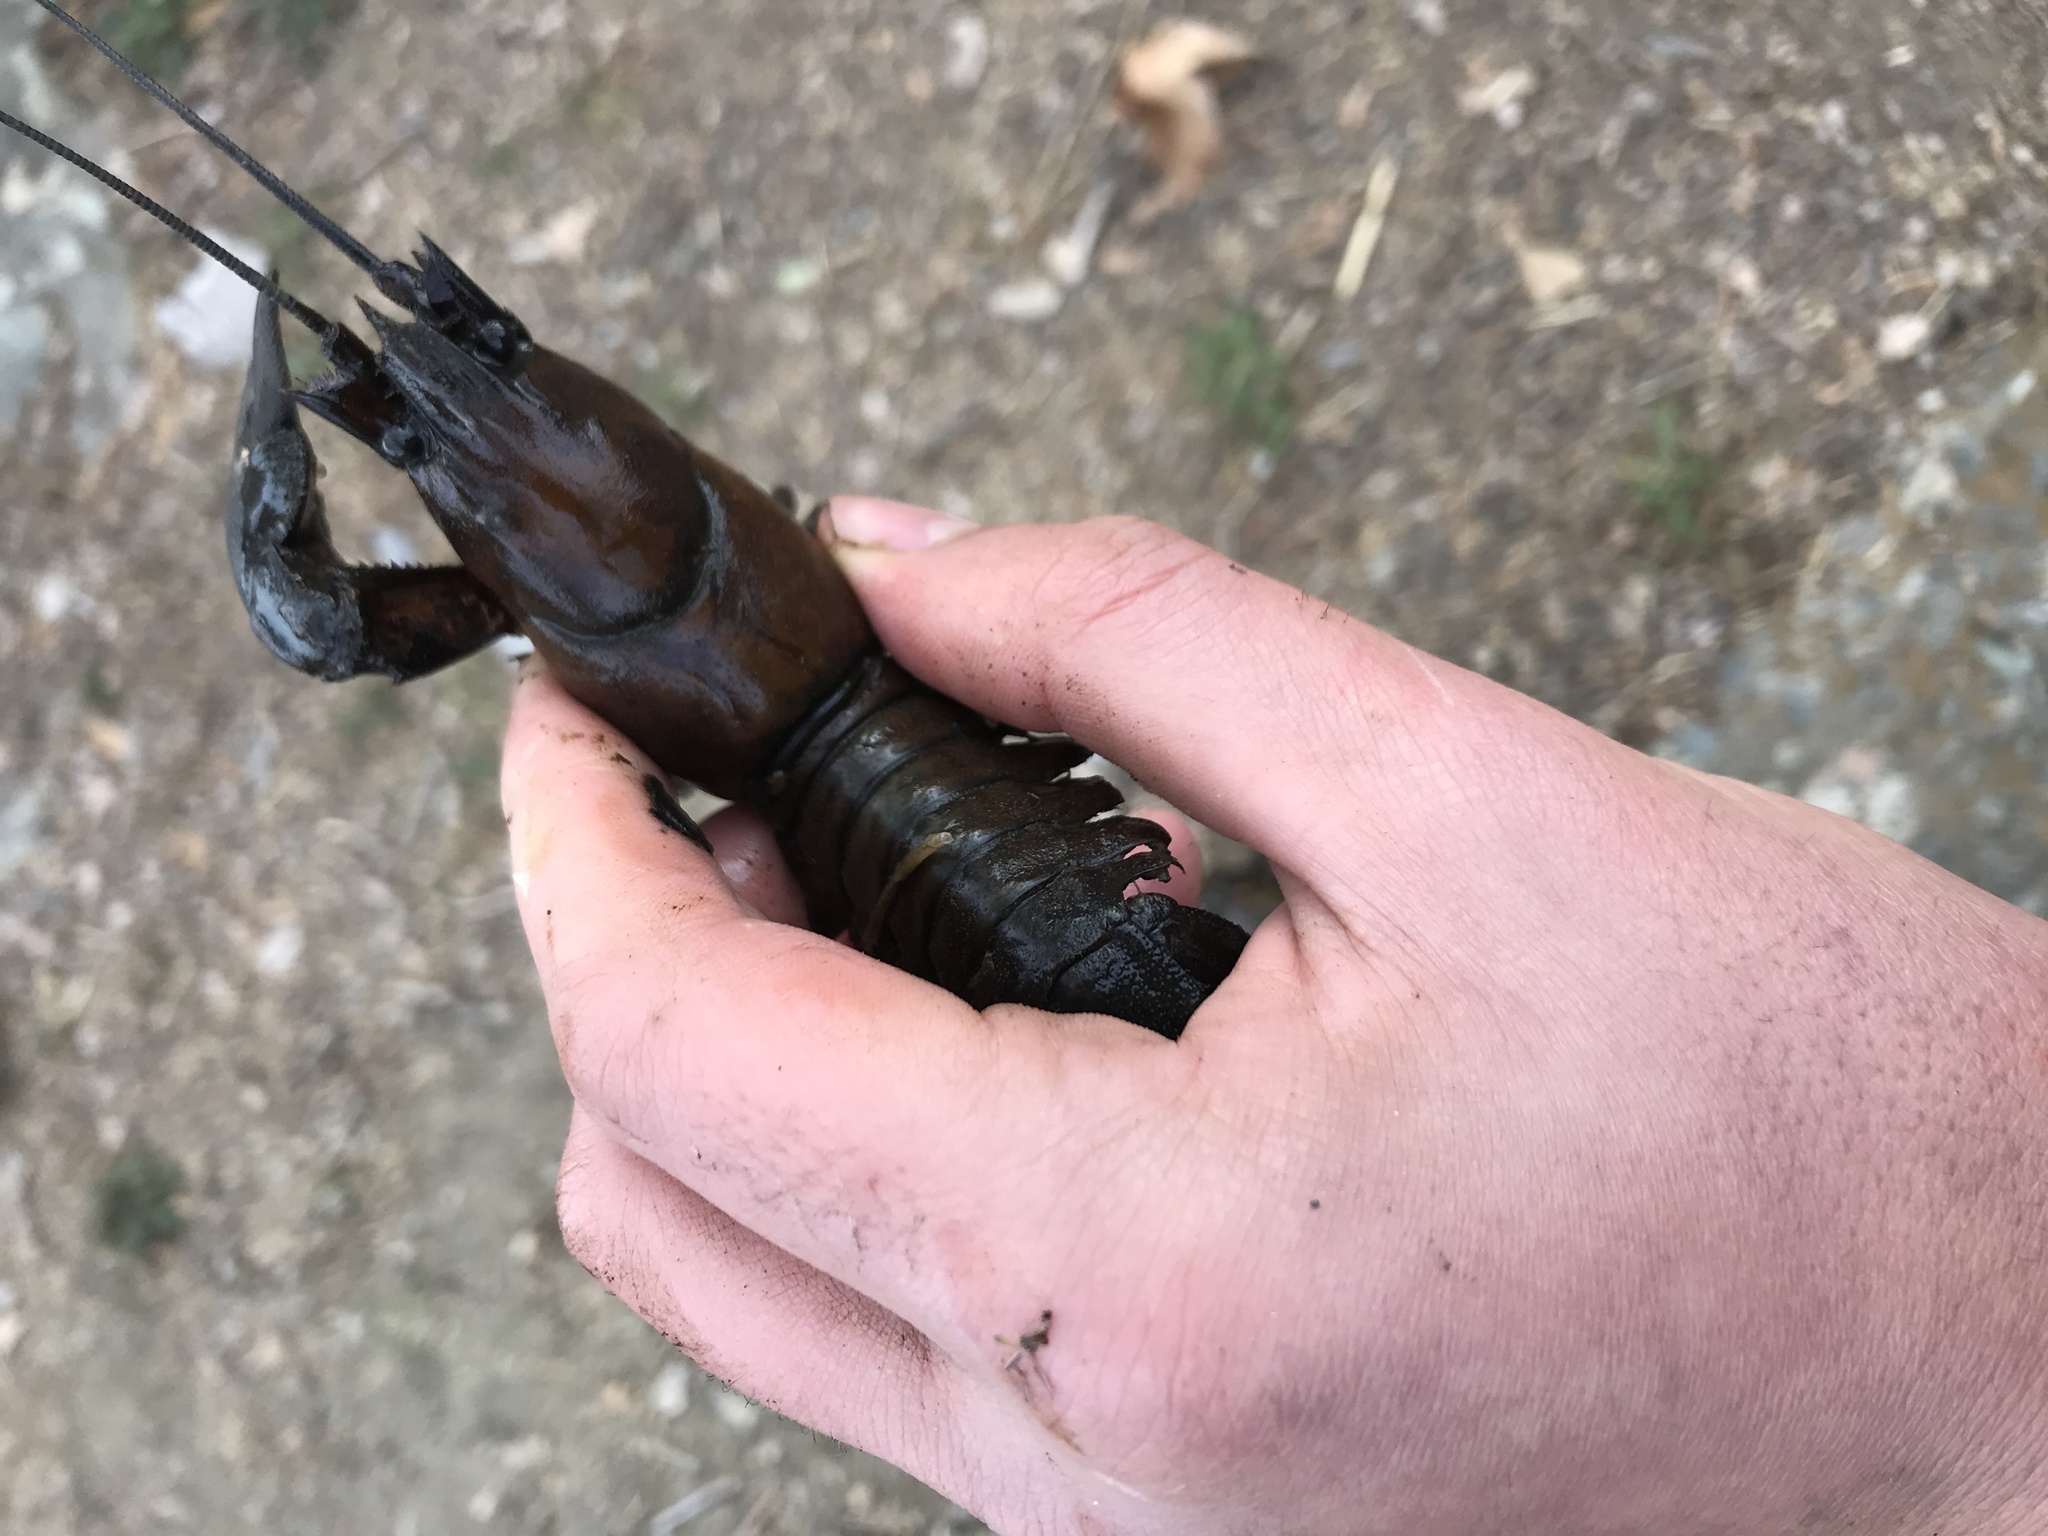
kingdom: Animalia
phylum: Arthropoda
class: Malacostraca
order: Decapoda
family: Astacidae
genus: Pacifastacus
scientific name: Pacifastacus leniusculus
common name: Signal crayfish
